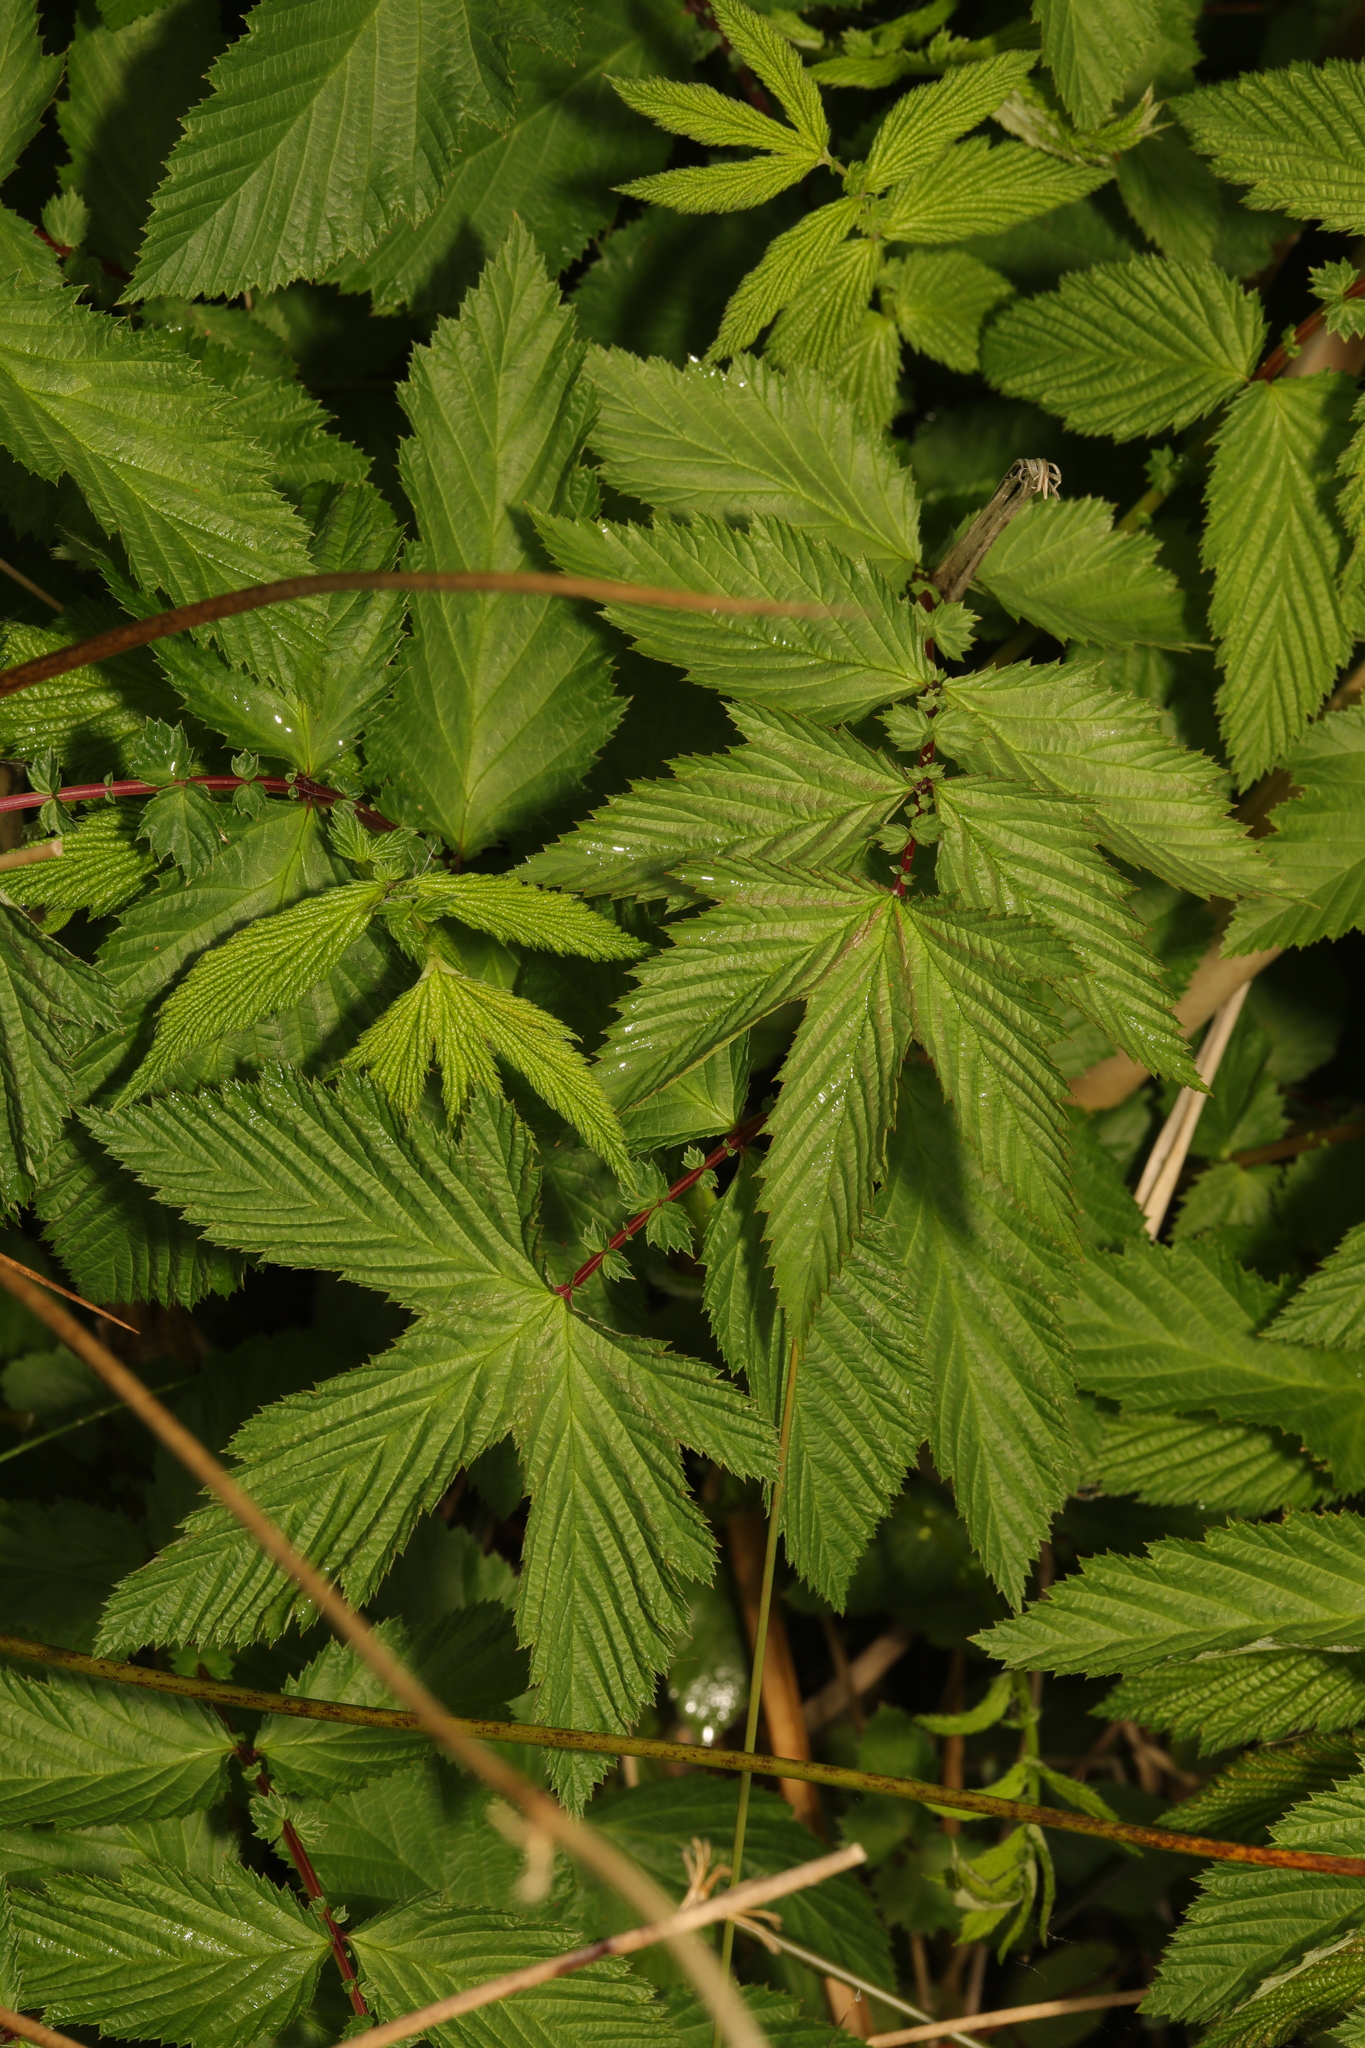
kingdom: Plantae
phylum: Tracheophyta
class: Magnoliopsida
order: Rosales
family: Rosaceae
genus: Filipendula
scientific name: Filipendula ulmaria
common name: Meadowsweet
